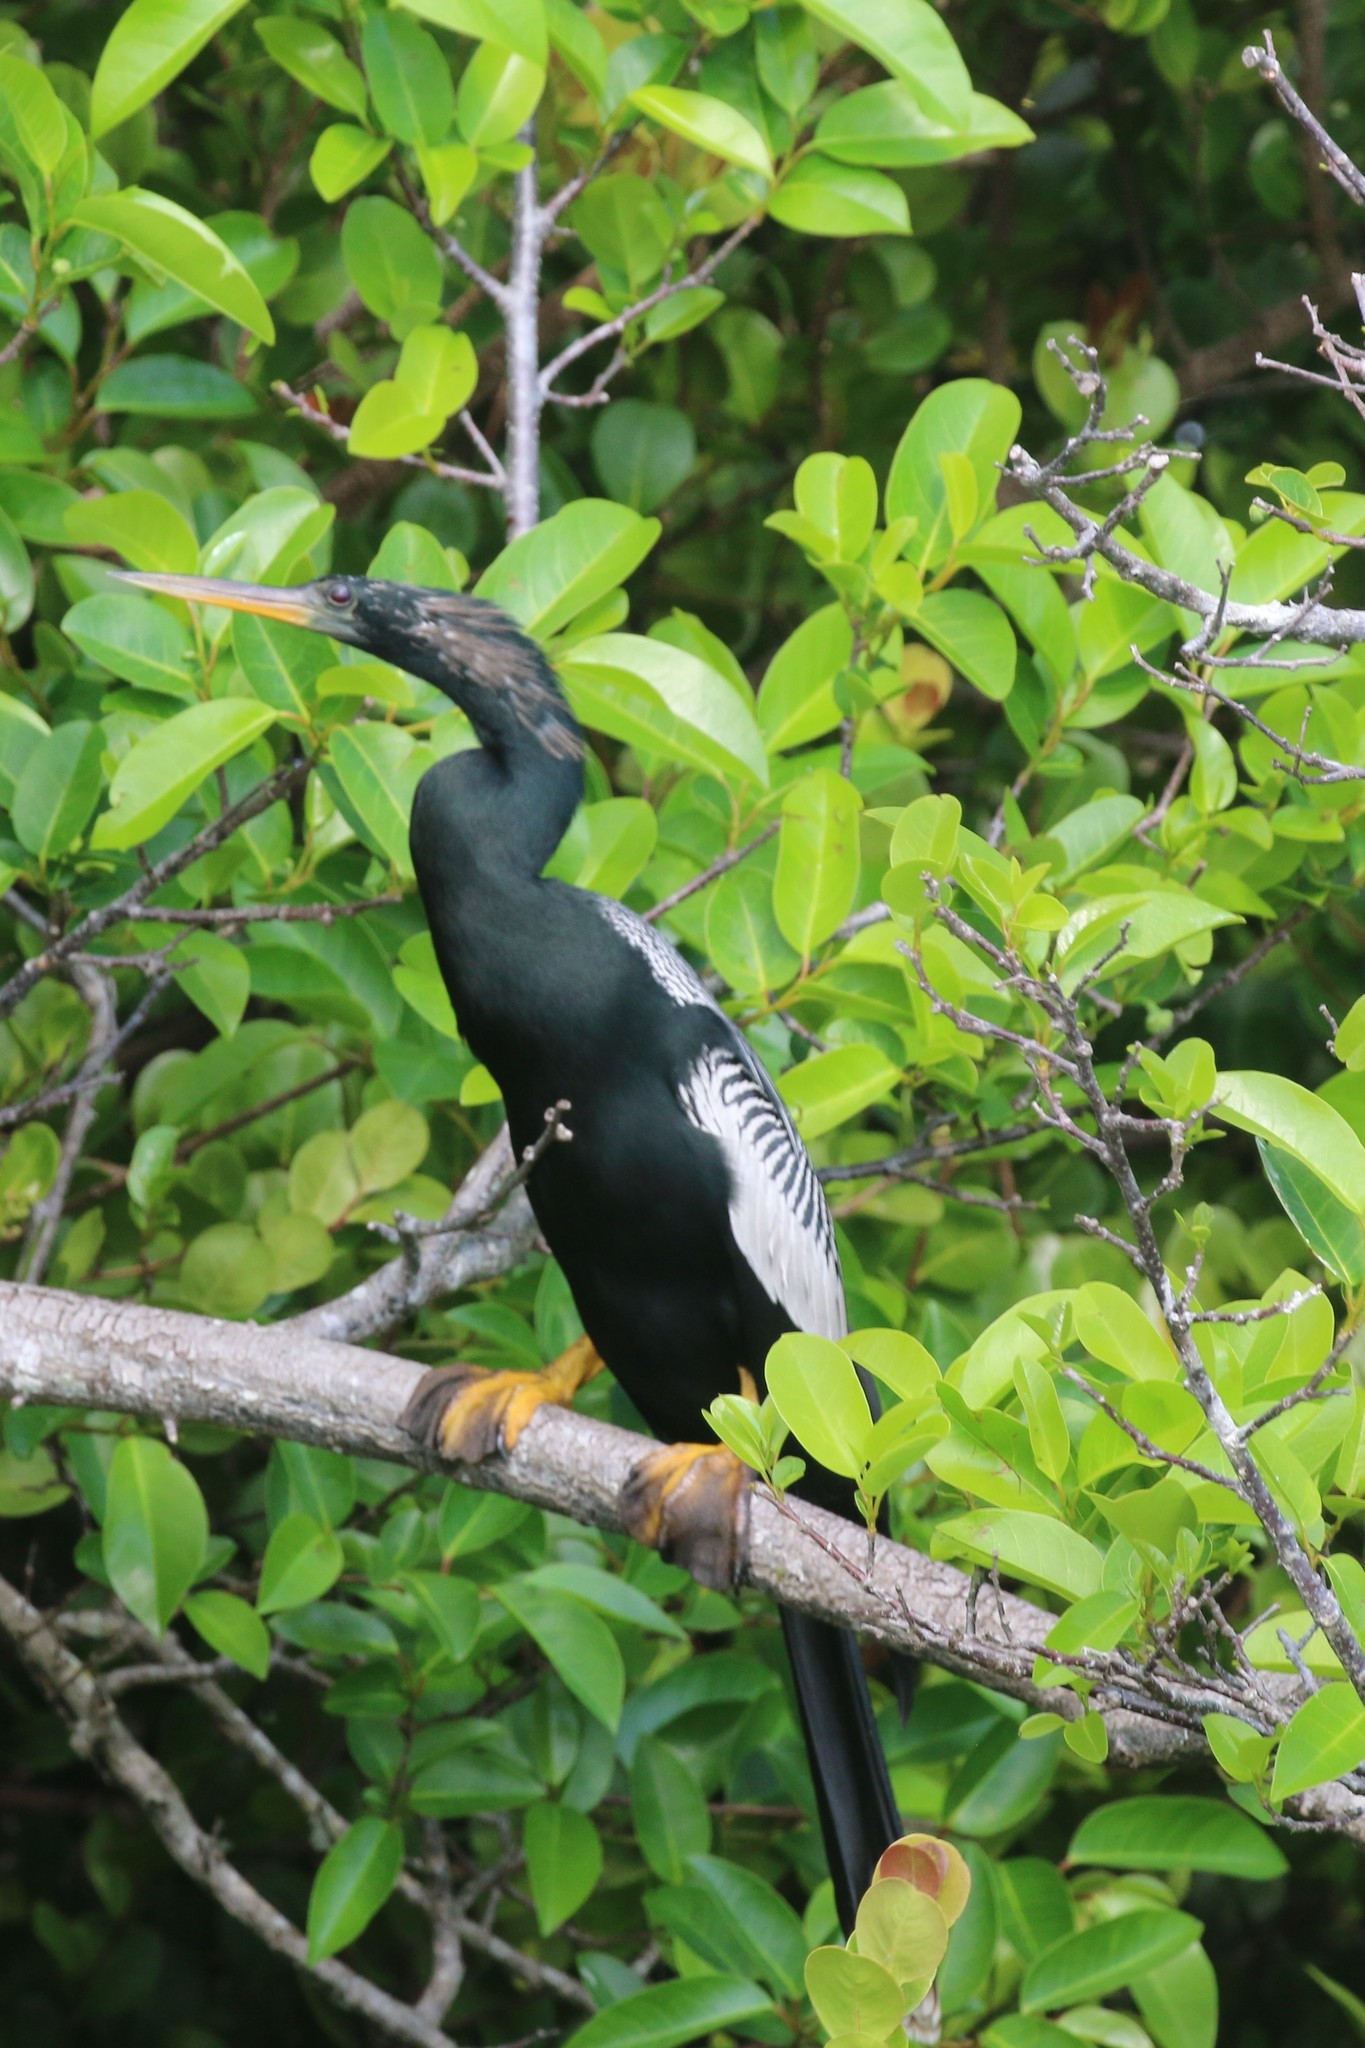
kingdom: Animalia
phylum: Chordata
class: Aves
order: Suliformes
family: Anhingidae
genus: Anhinga
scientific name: Anhinga anhinga
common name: Anhinga
